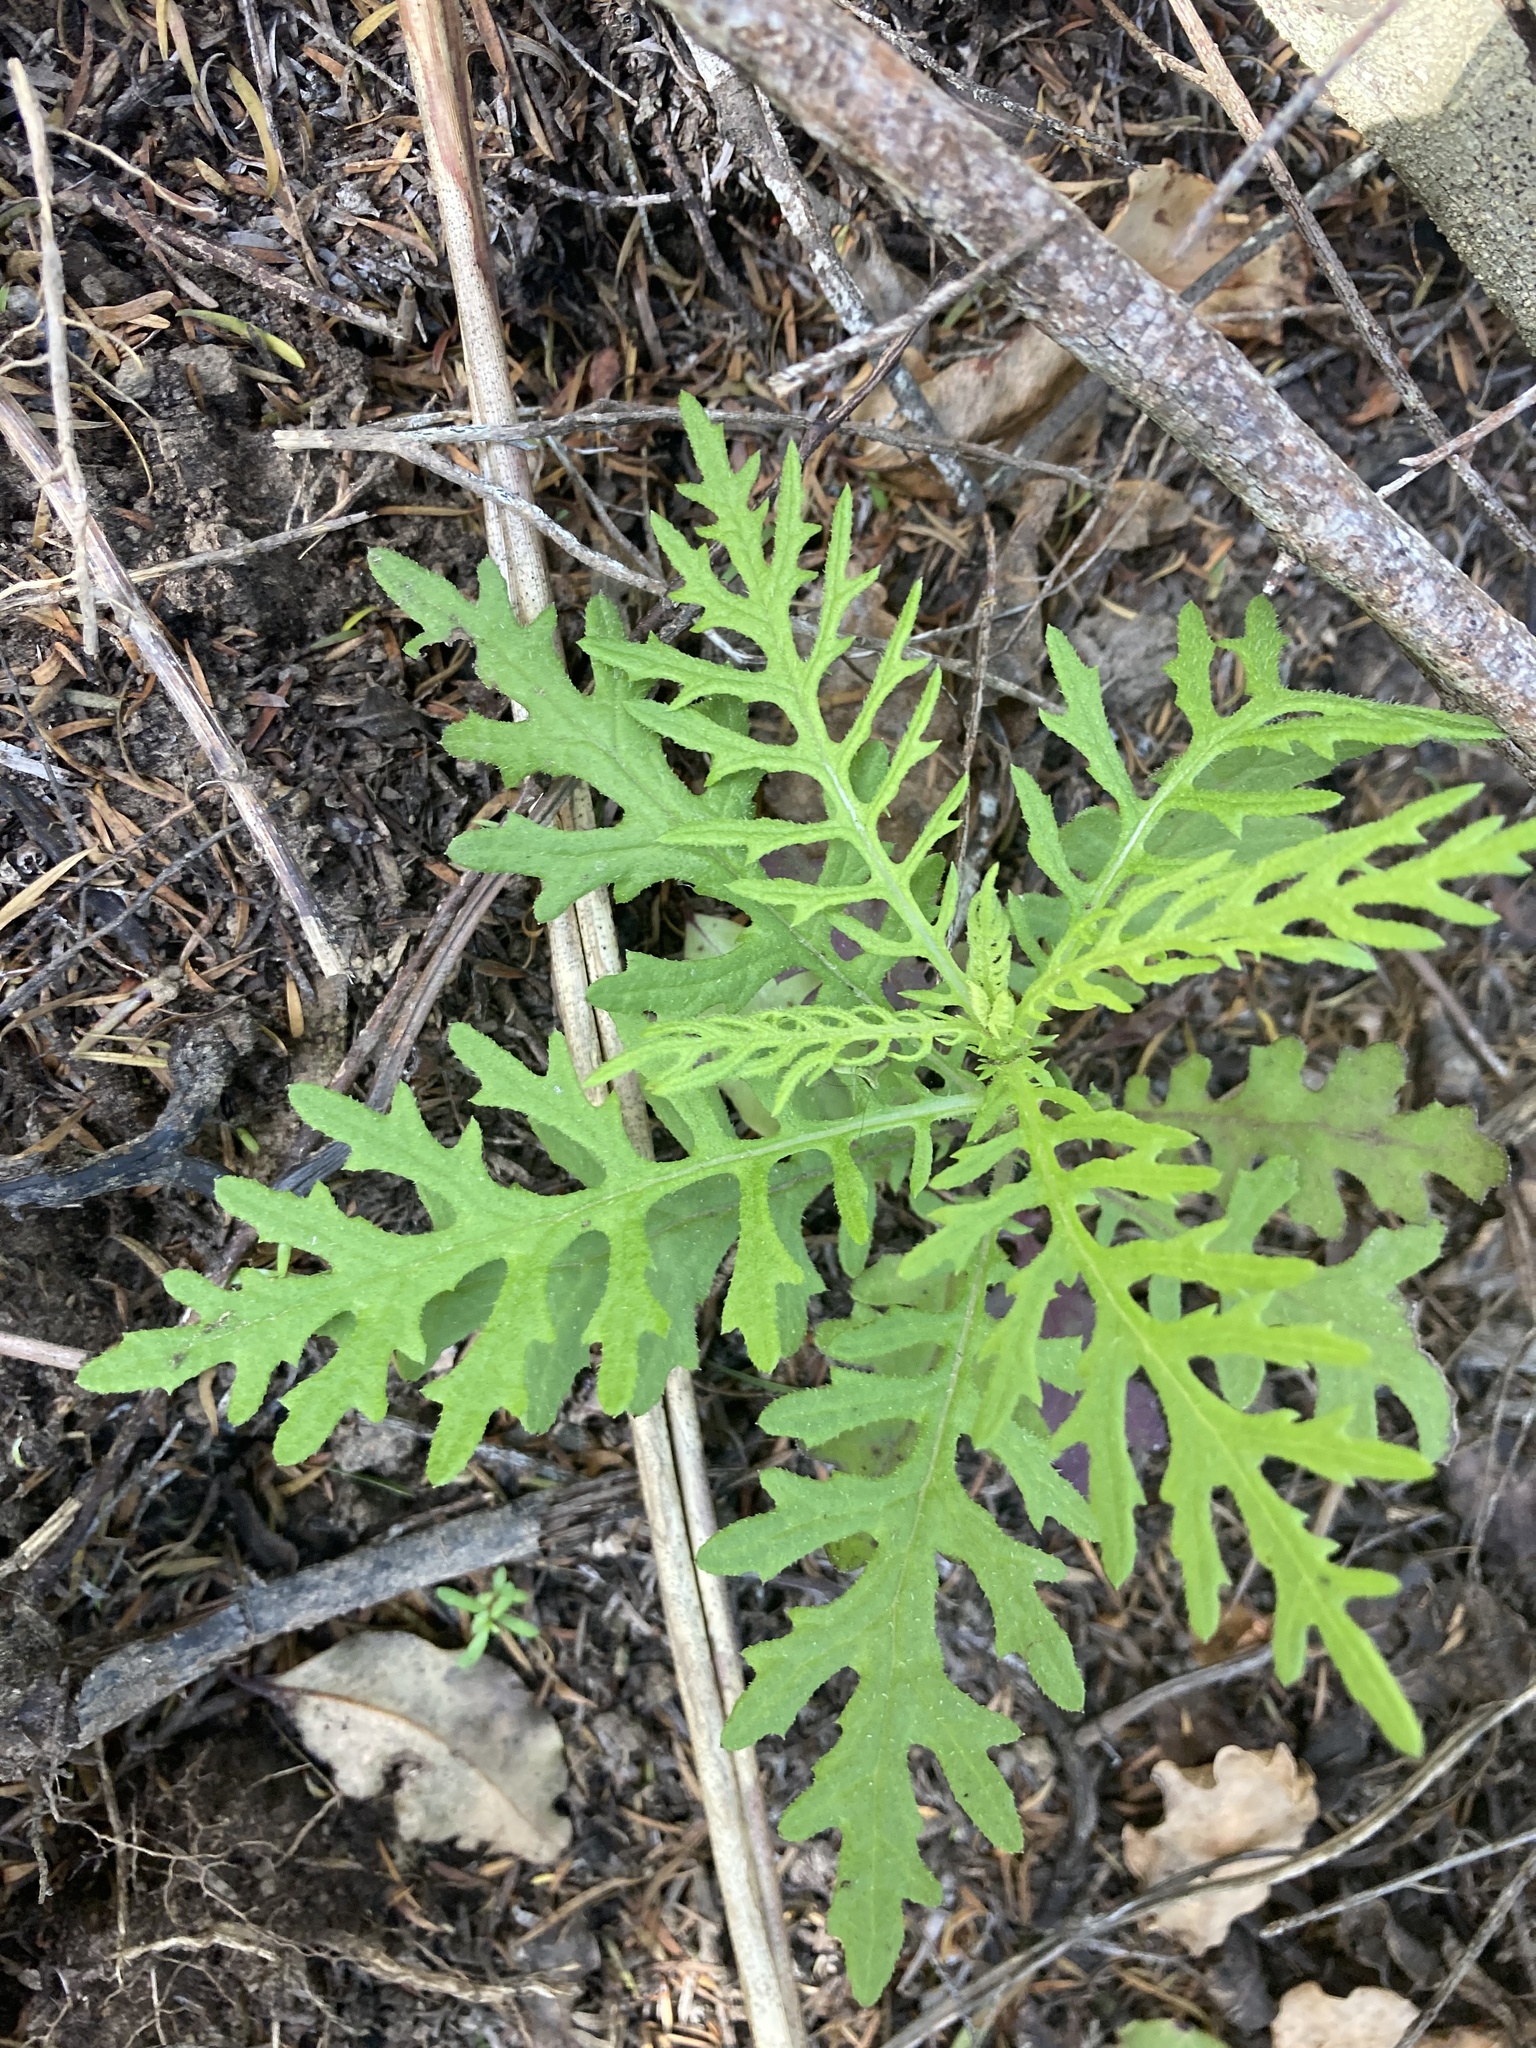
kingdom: Plantae
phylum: Tracheophyta
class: Magnoliopsida
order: Asterales
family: Asteraceae
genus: Senecio
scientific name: Senecio bipinnatisectus
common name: Australian fireweed
